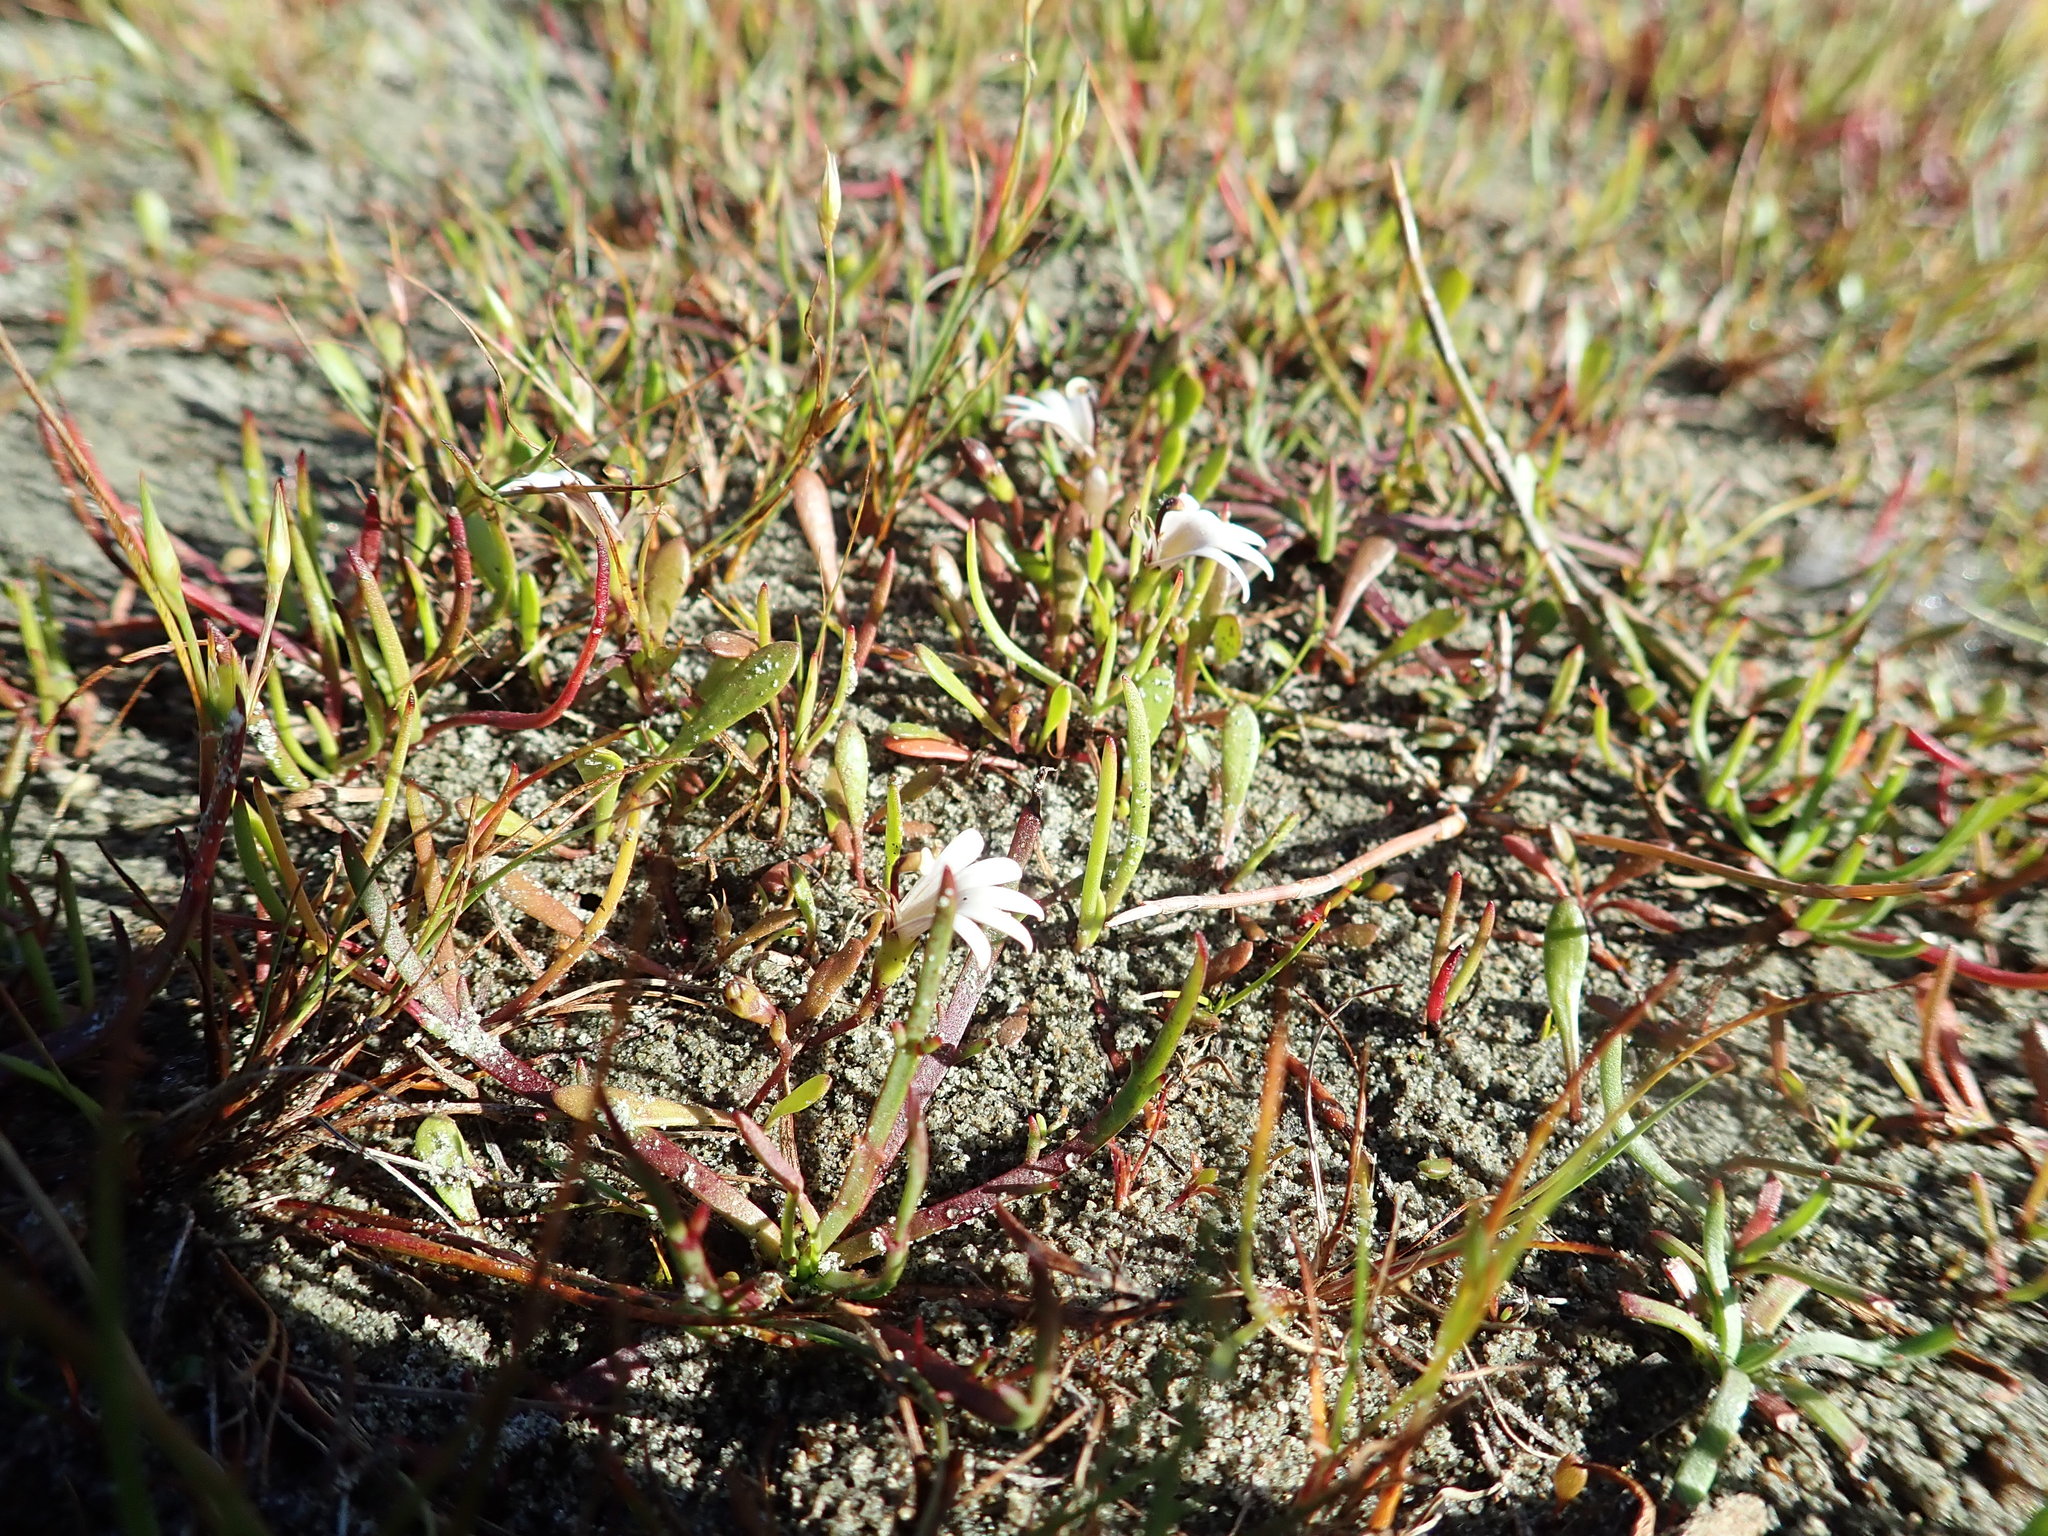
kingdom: Plantae
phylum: Tracheophyta
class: Magnoliopsida
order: Asterales
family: Goodeniaceae
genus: Goodenia
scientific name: Goodenia radicans
